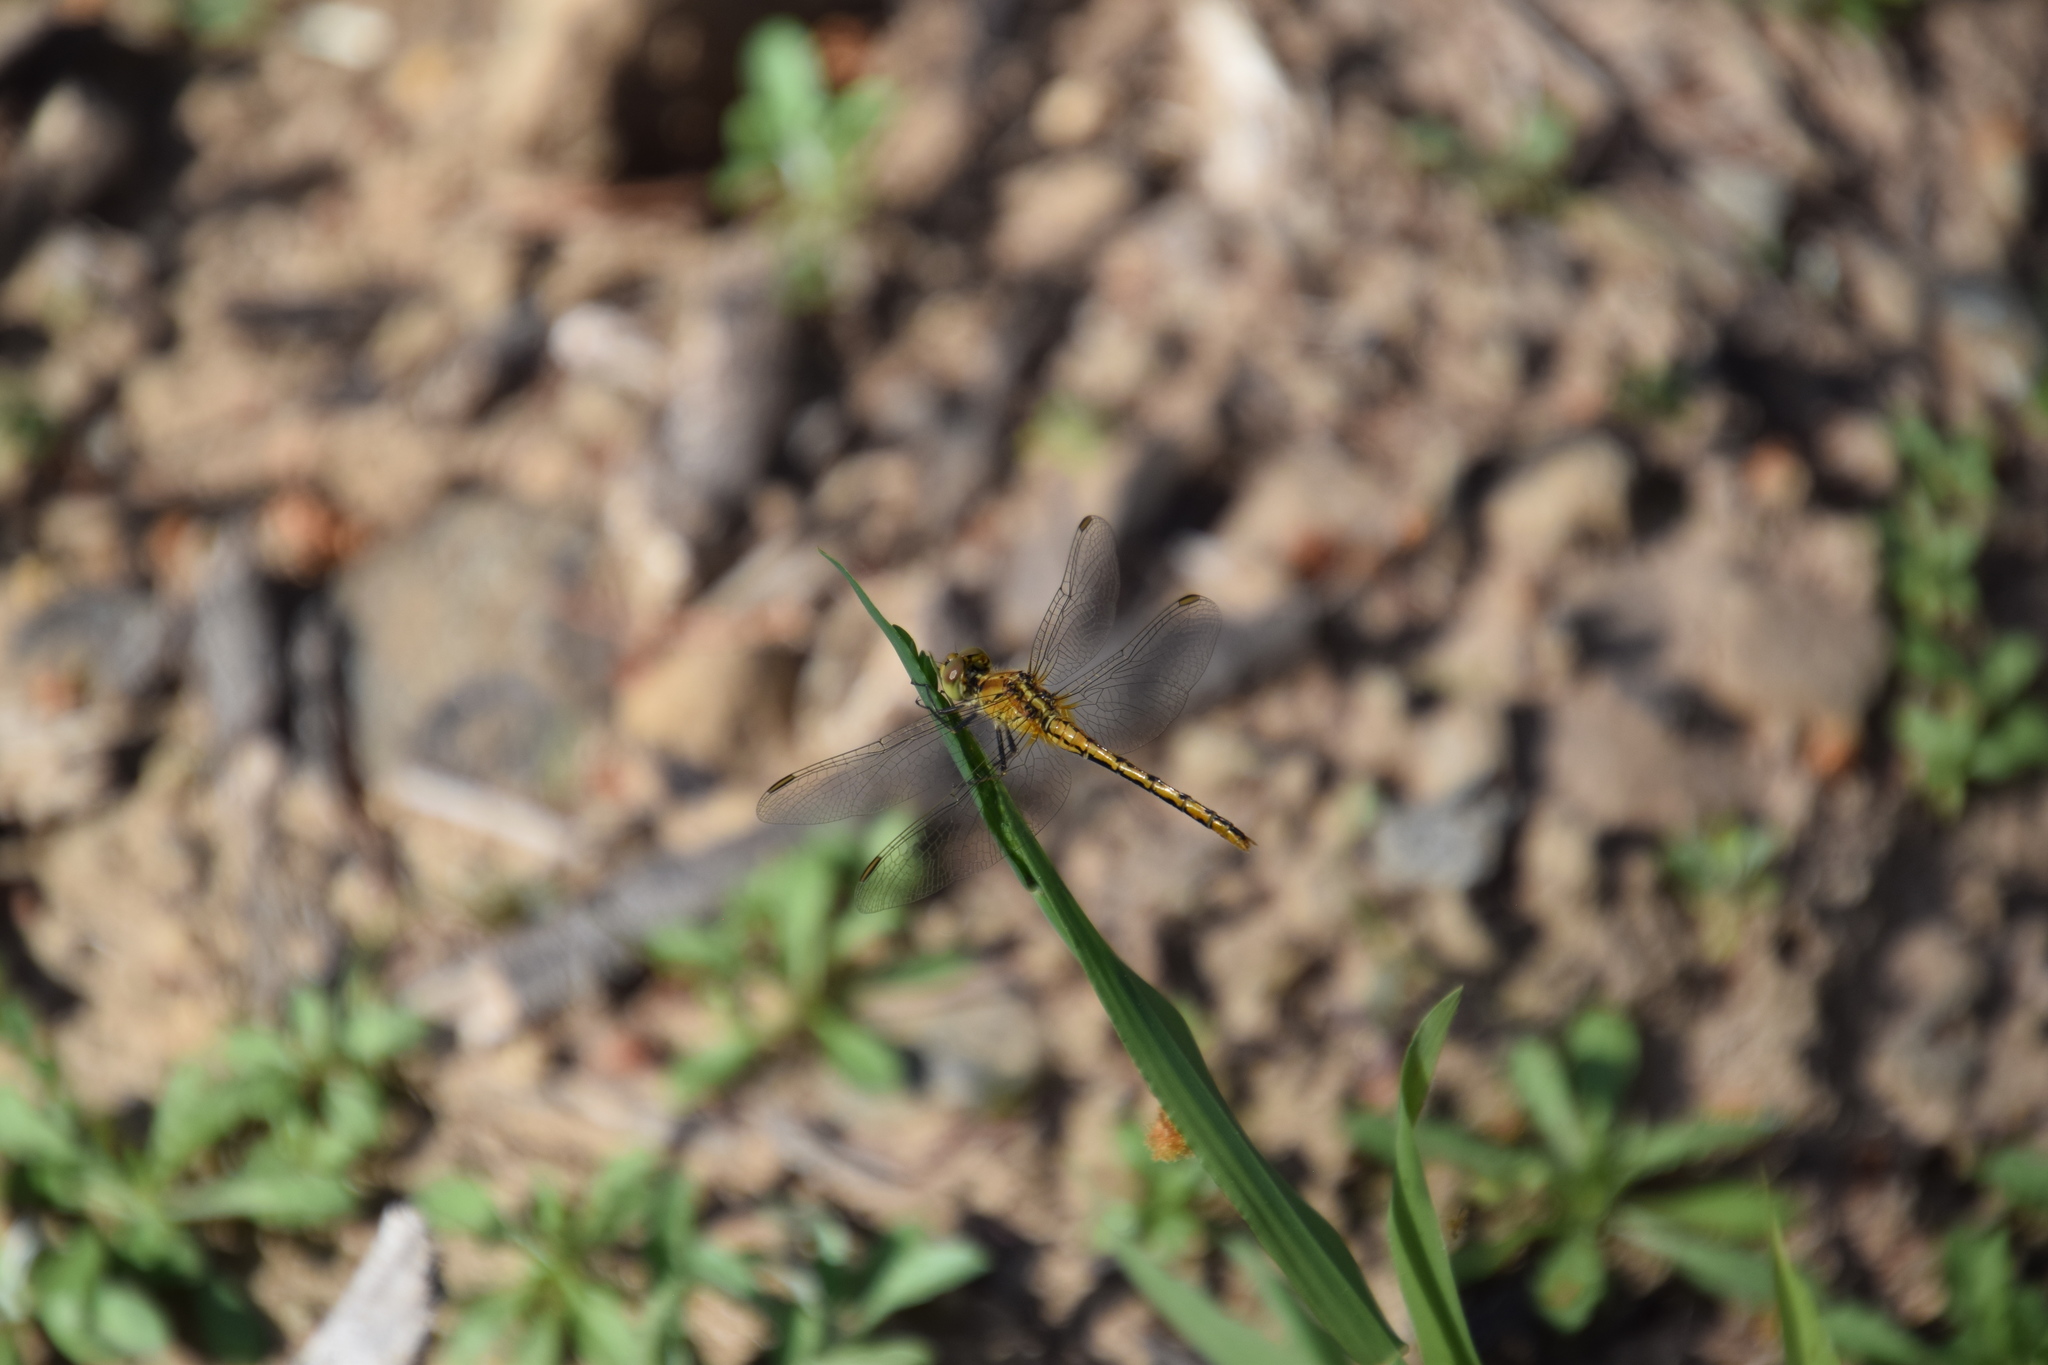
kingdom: Animalia
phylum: Arthropoda
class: Insecta
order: Odonata
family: Libellulidae
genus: Diplacodes
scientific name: Diplacodes bipunctata
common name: Red percher dragonfly
